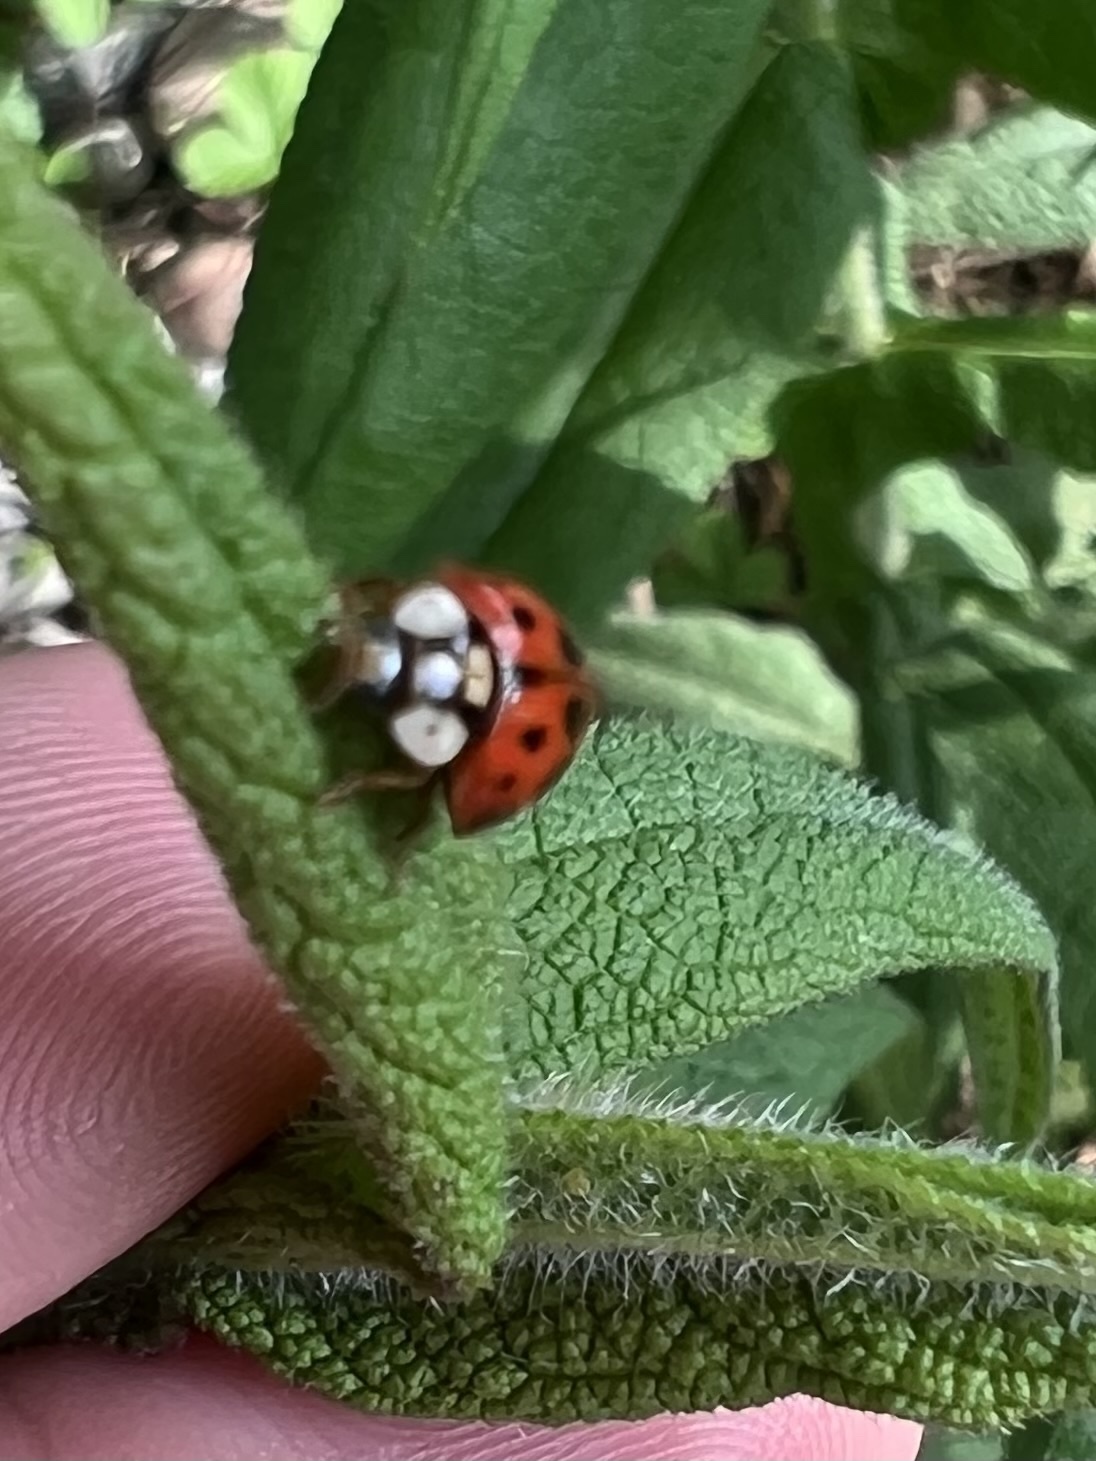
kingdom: Animalia
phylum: Arthropoda
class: Insecta
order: Coleoptera
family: Coccinellidae
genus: Harmonia
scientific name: Harmonia axyridis
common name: Harlequin ladybird
